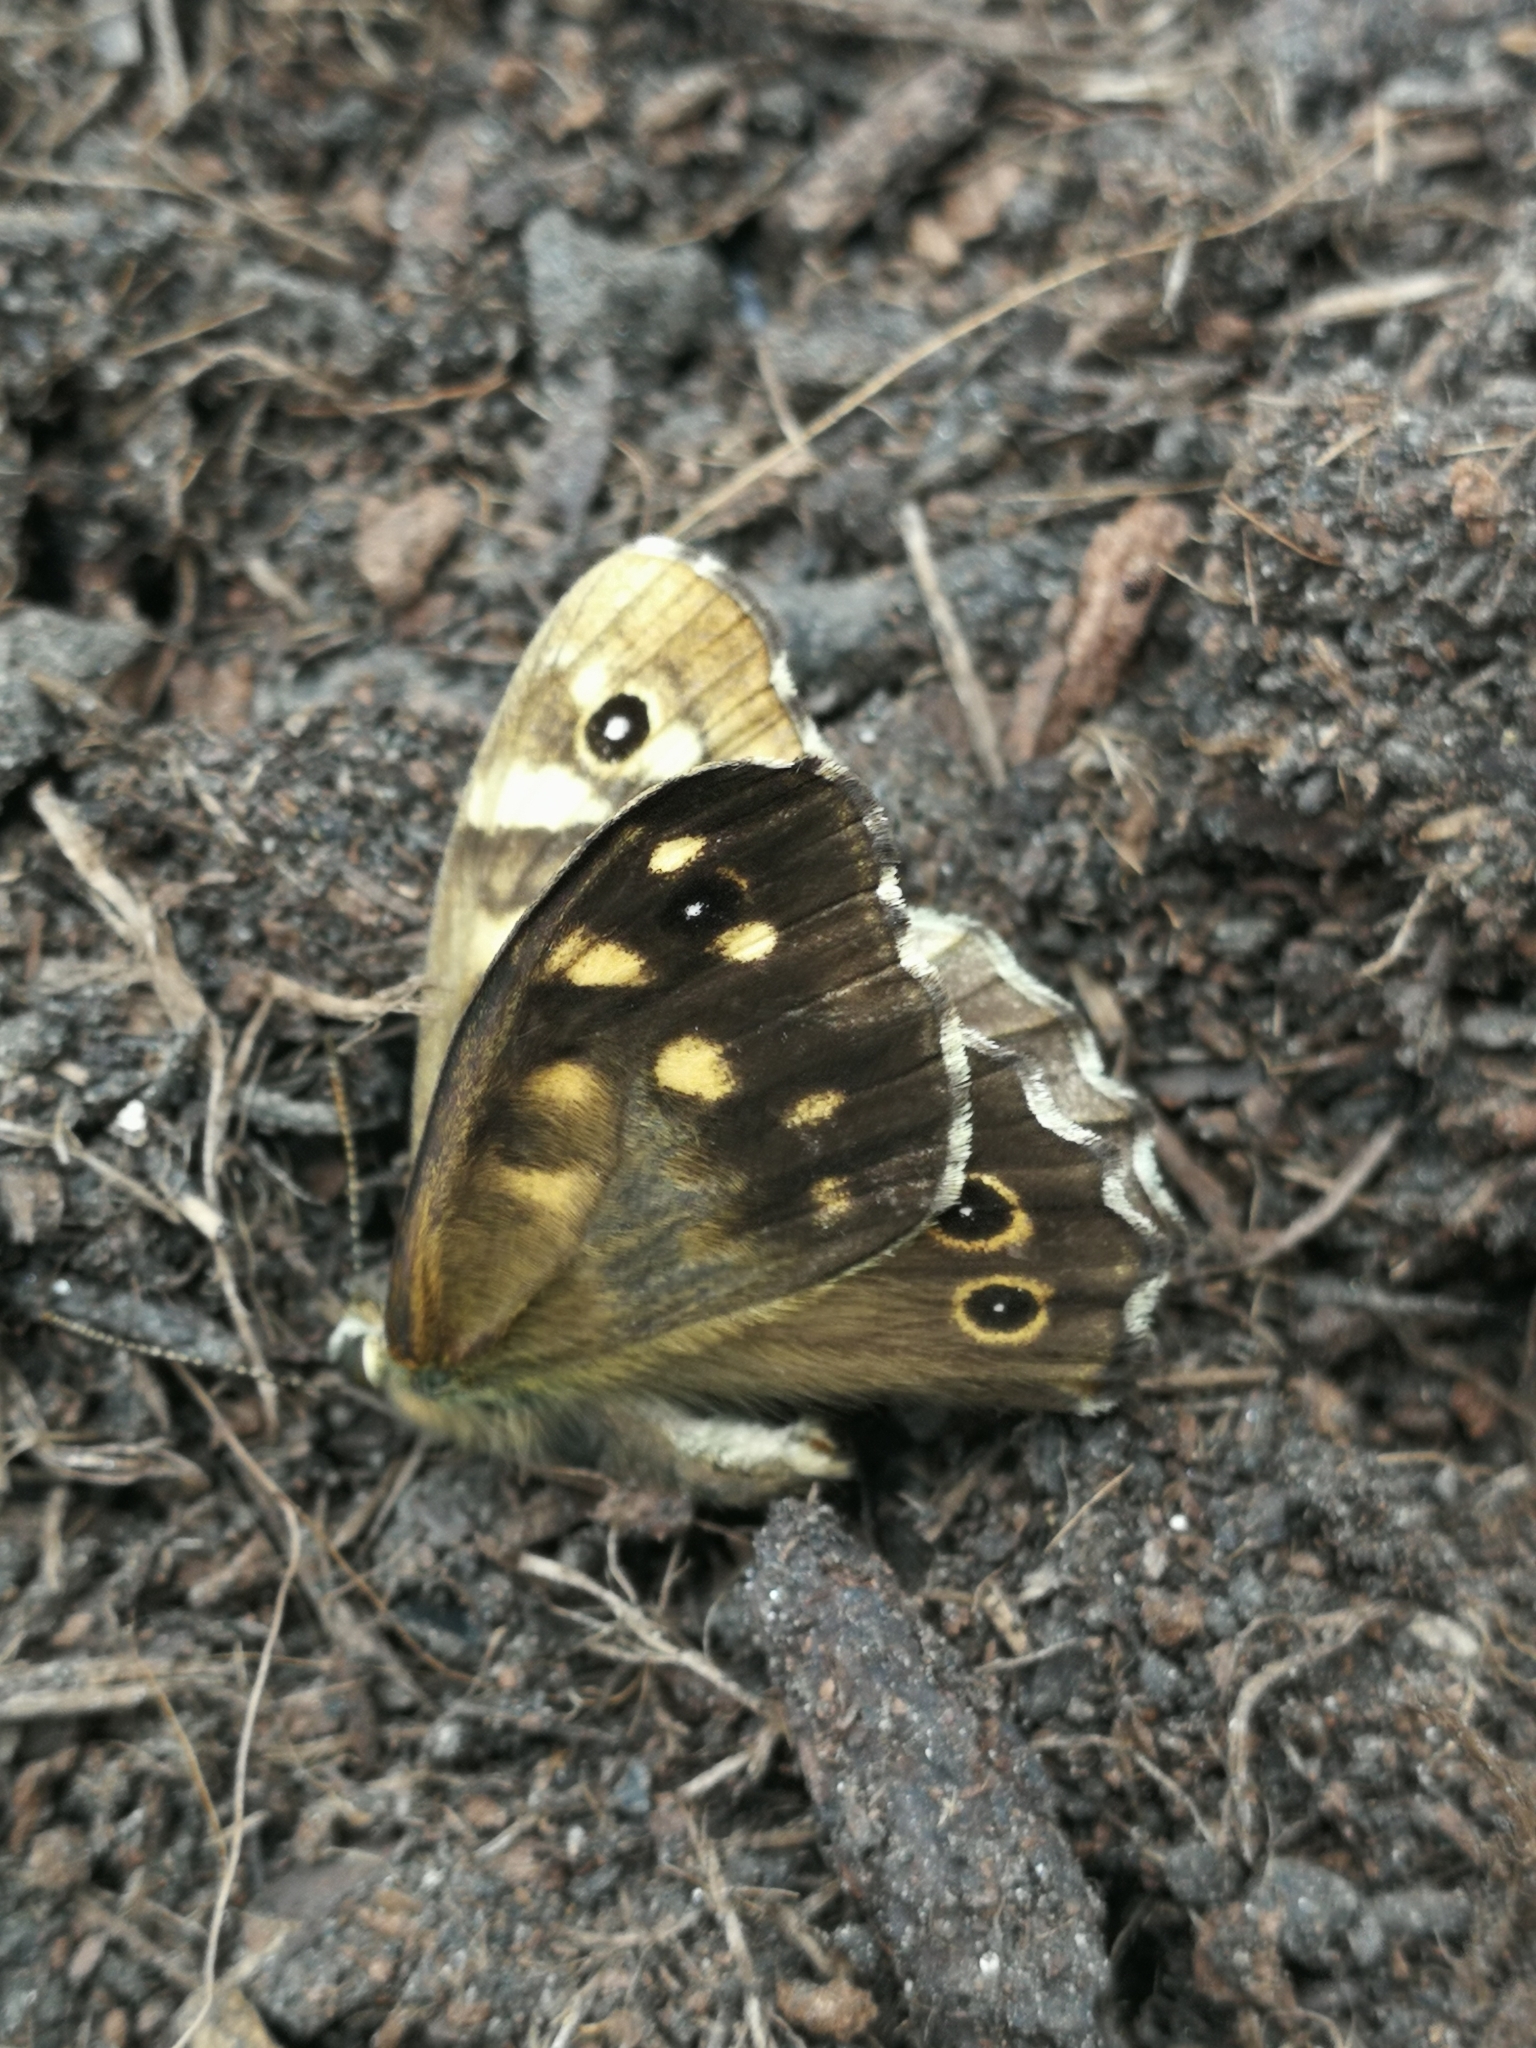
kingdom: Animalia
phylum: Arthropoda
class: Insecta
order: Lepidoptera
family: Nymphalidae
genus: Pararge
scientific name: Pararge aegeria
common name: Speckled wood
